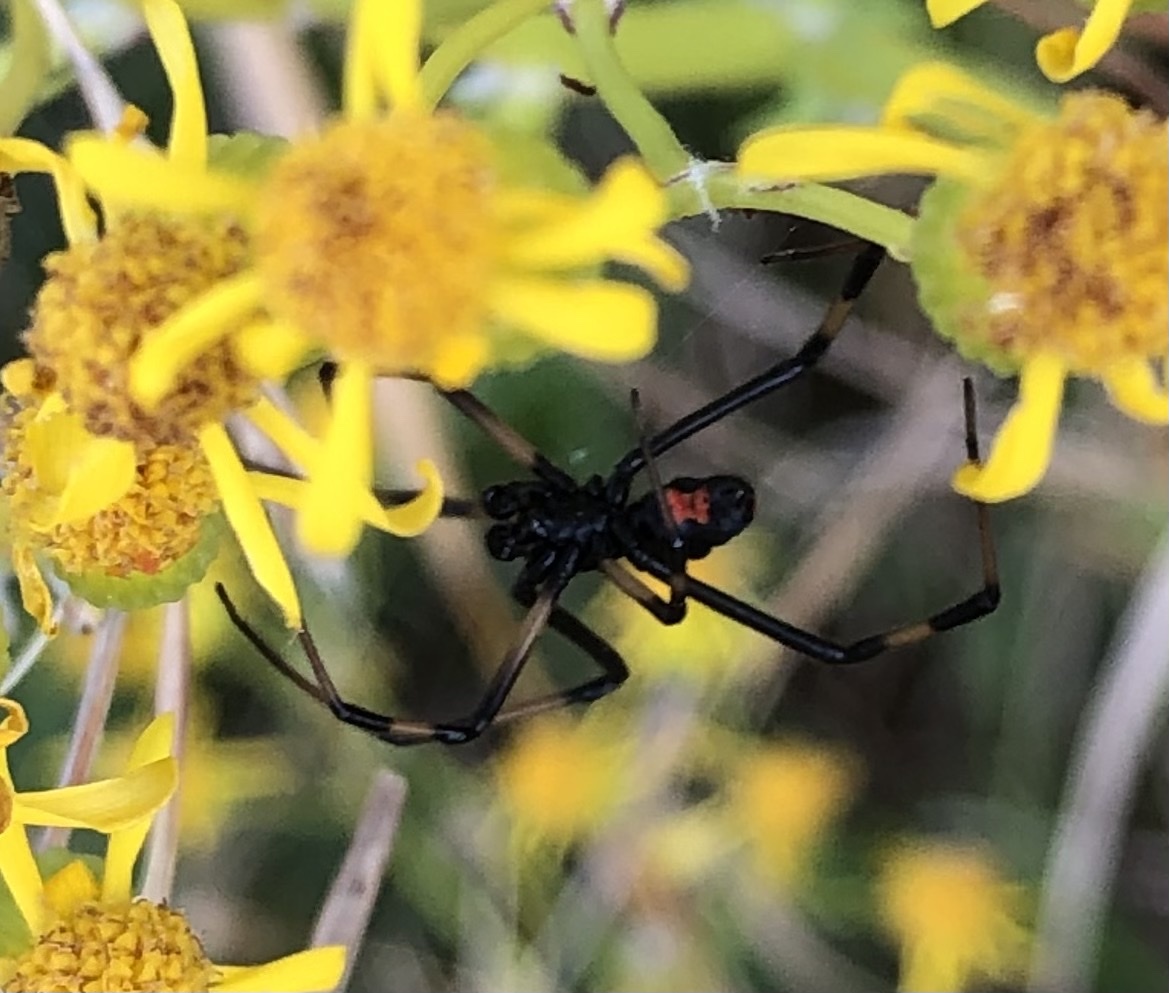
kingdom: Animalia
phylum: Arthropoda
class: Arachnida
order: Araneae
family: Theridiidae
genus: Latrodectus
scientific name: Latrodectus mactans
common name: Cobweb spiders
